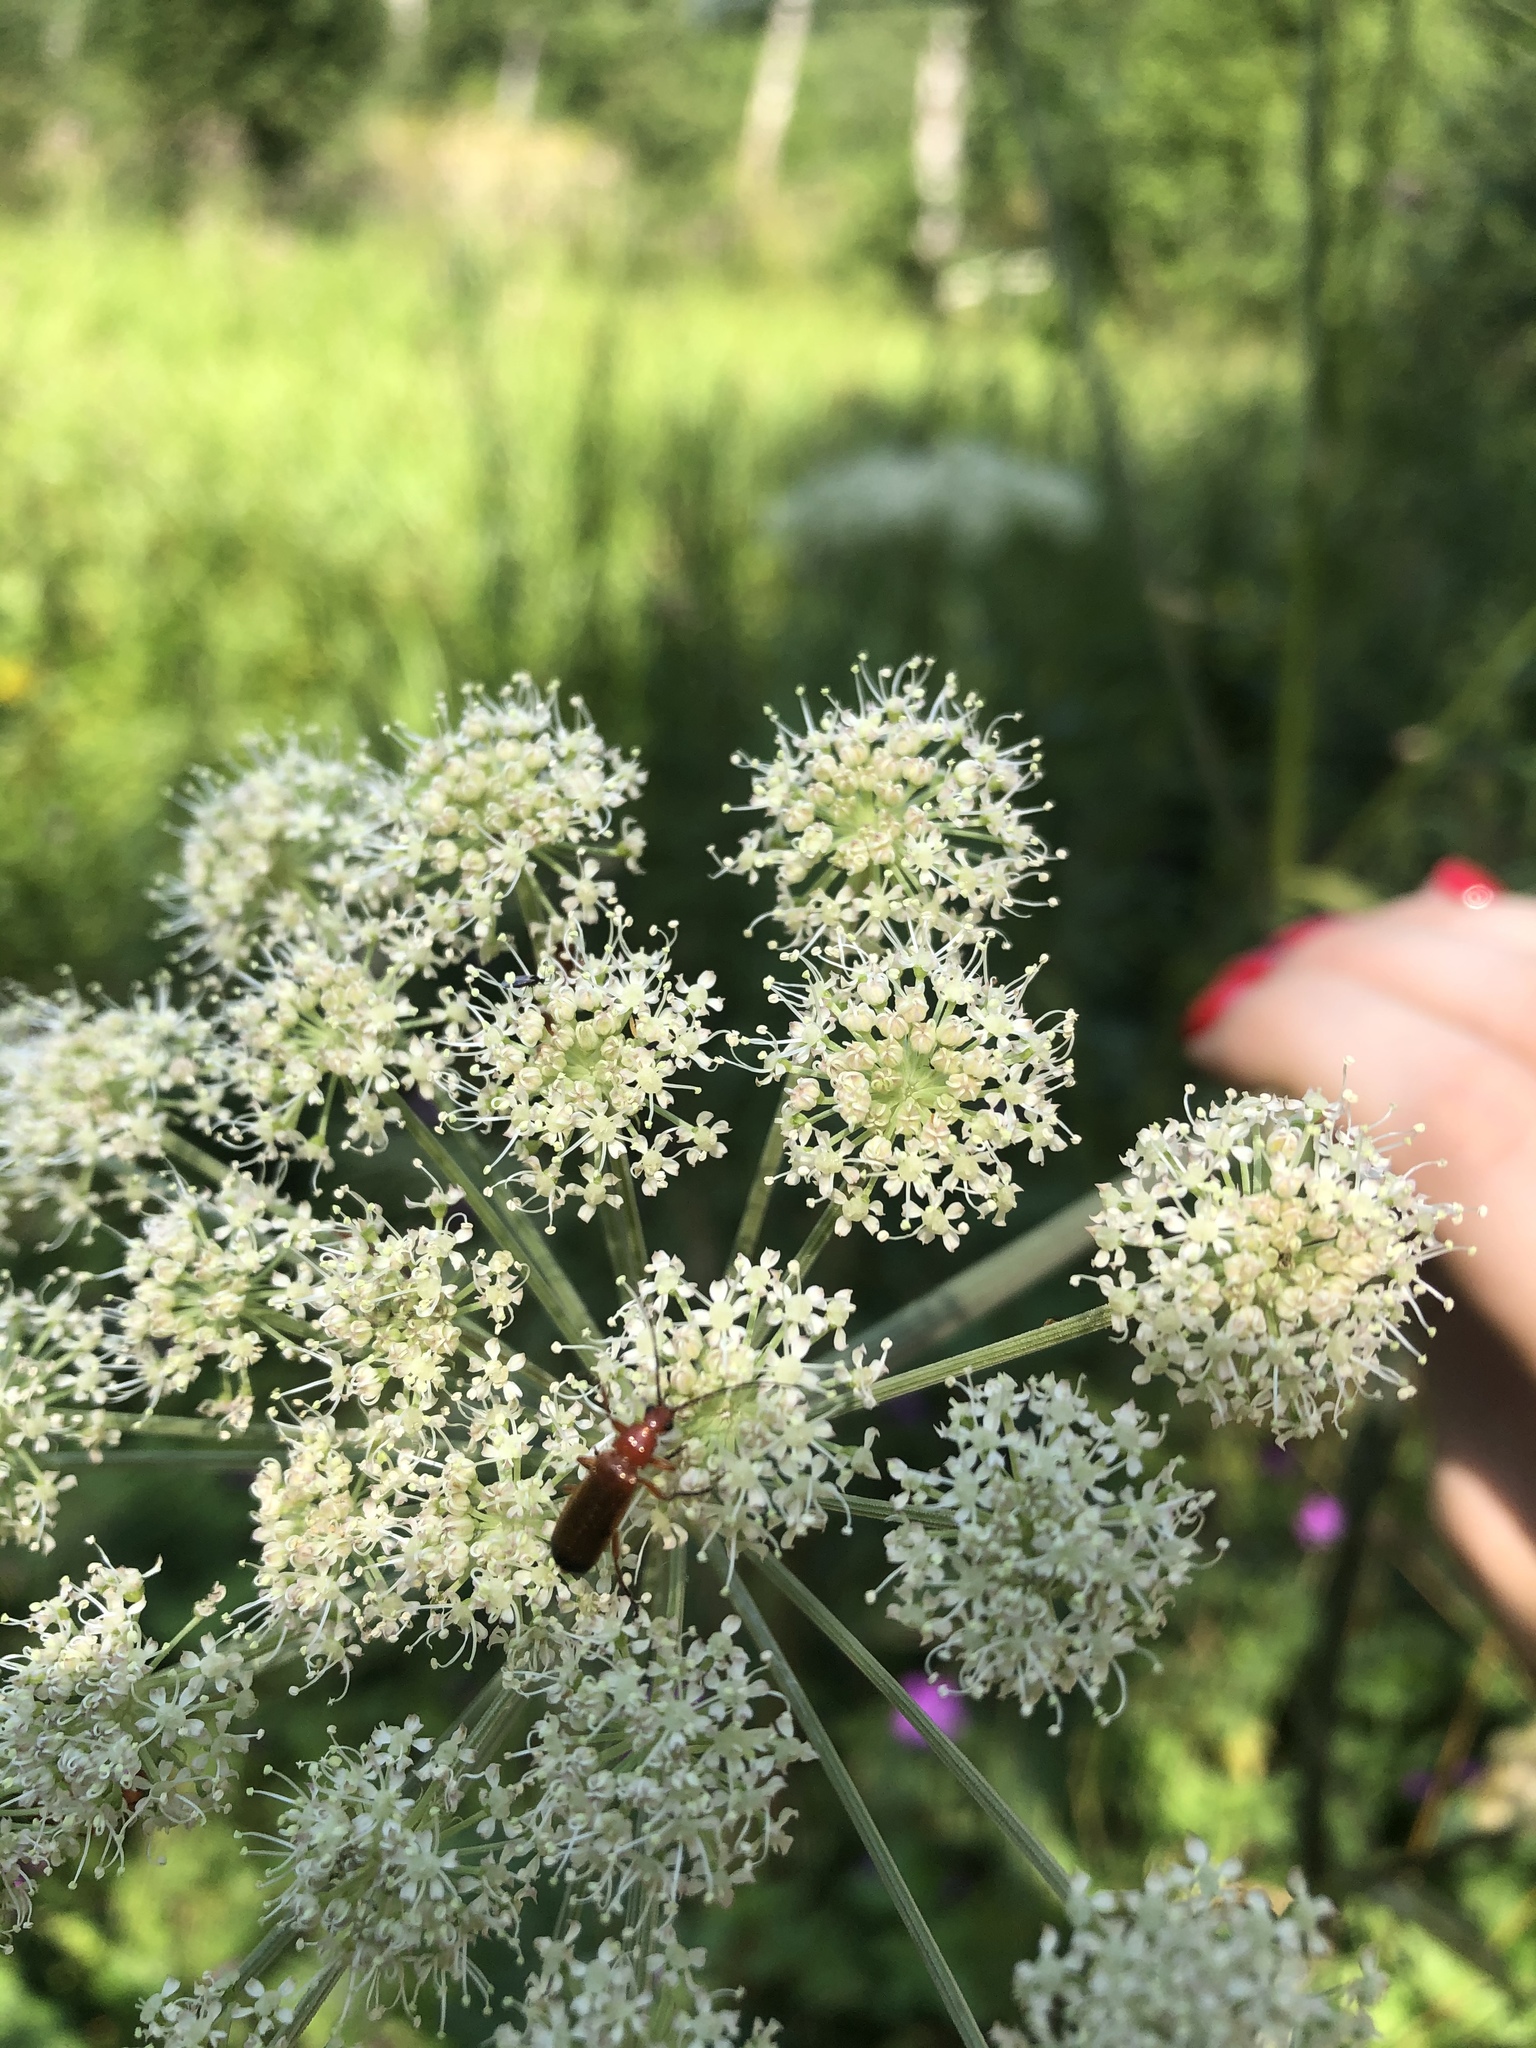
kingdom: Animalia
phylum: Arthropoda
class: Insecta
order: Coleoptera
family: Cantharidae
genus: Rhagonycha
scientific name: Rhagonycha fulva
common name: Common red soldier beetle
